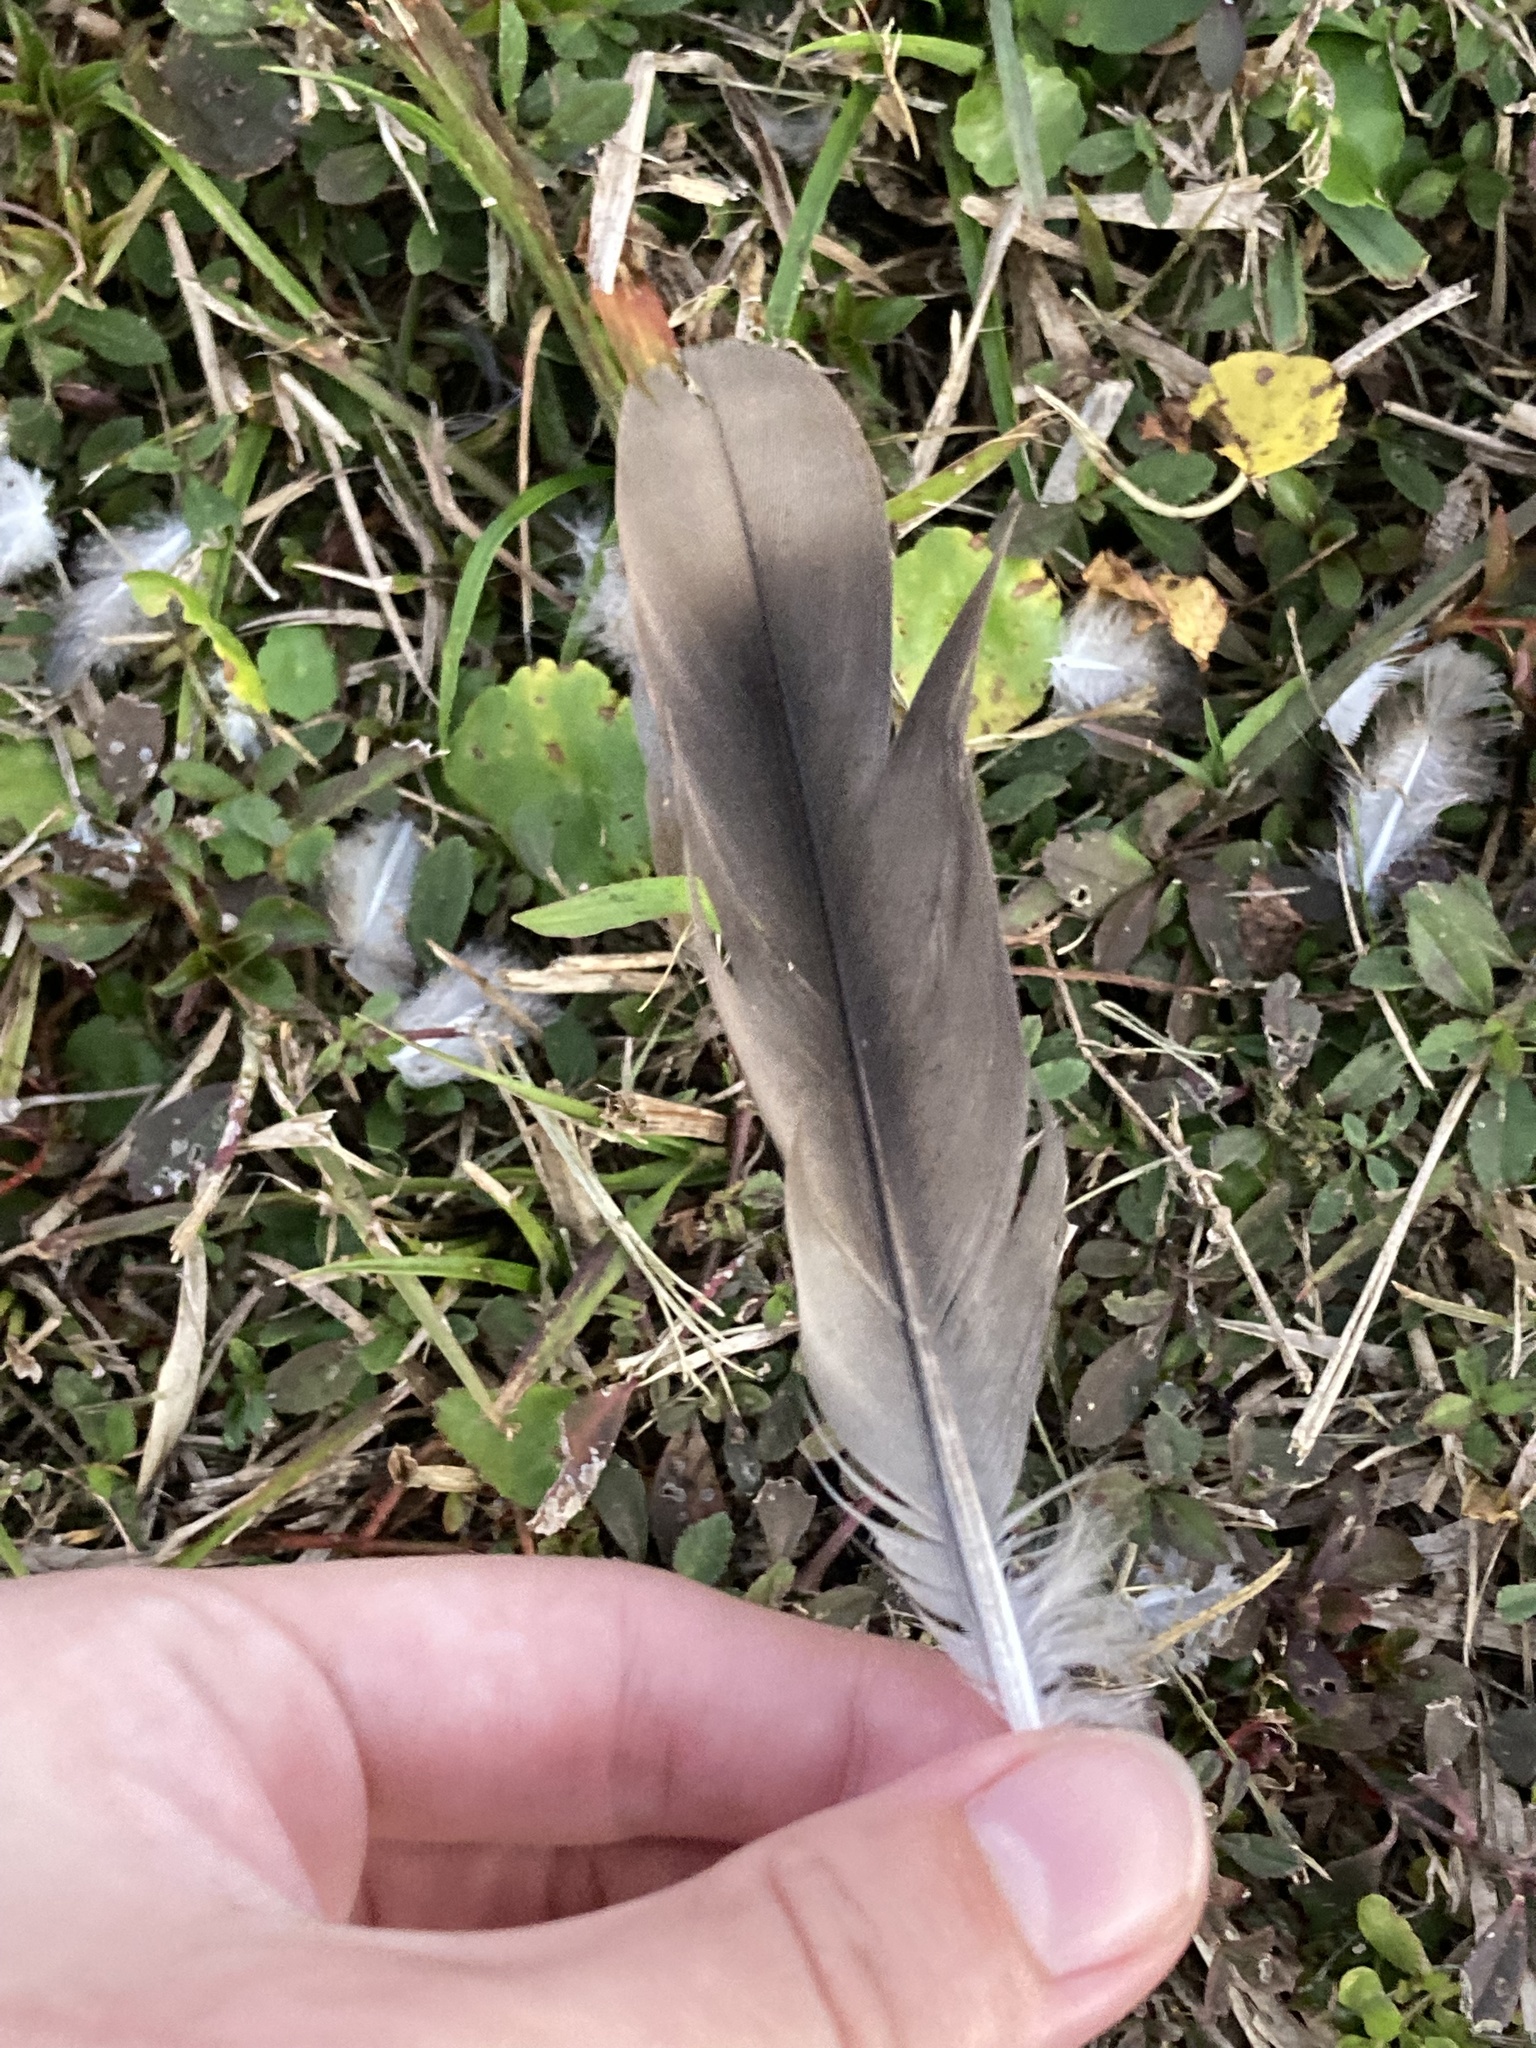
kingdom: Animalia
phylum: Chordata
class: Aves
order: Columbiformes
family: Columbidae
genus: Zenaida
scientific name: Zenaida asiatica
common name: White-winged dove
